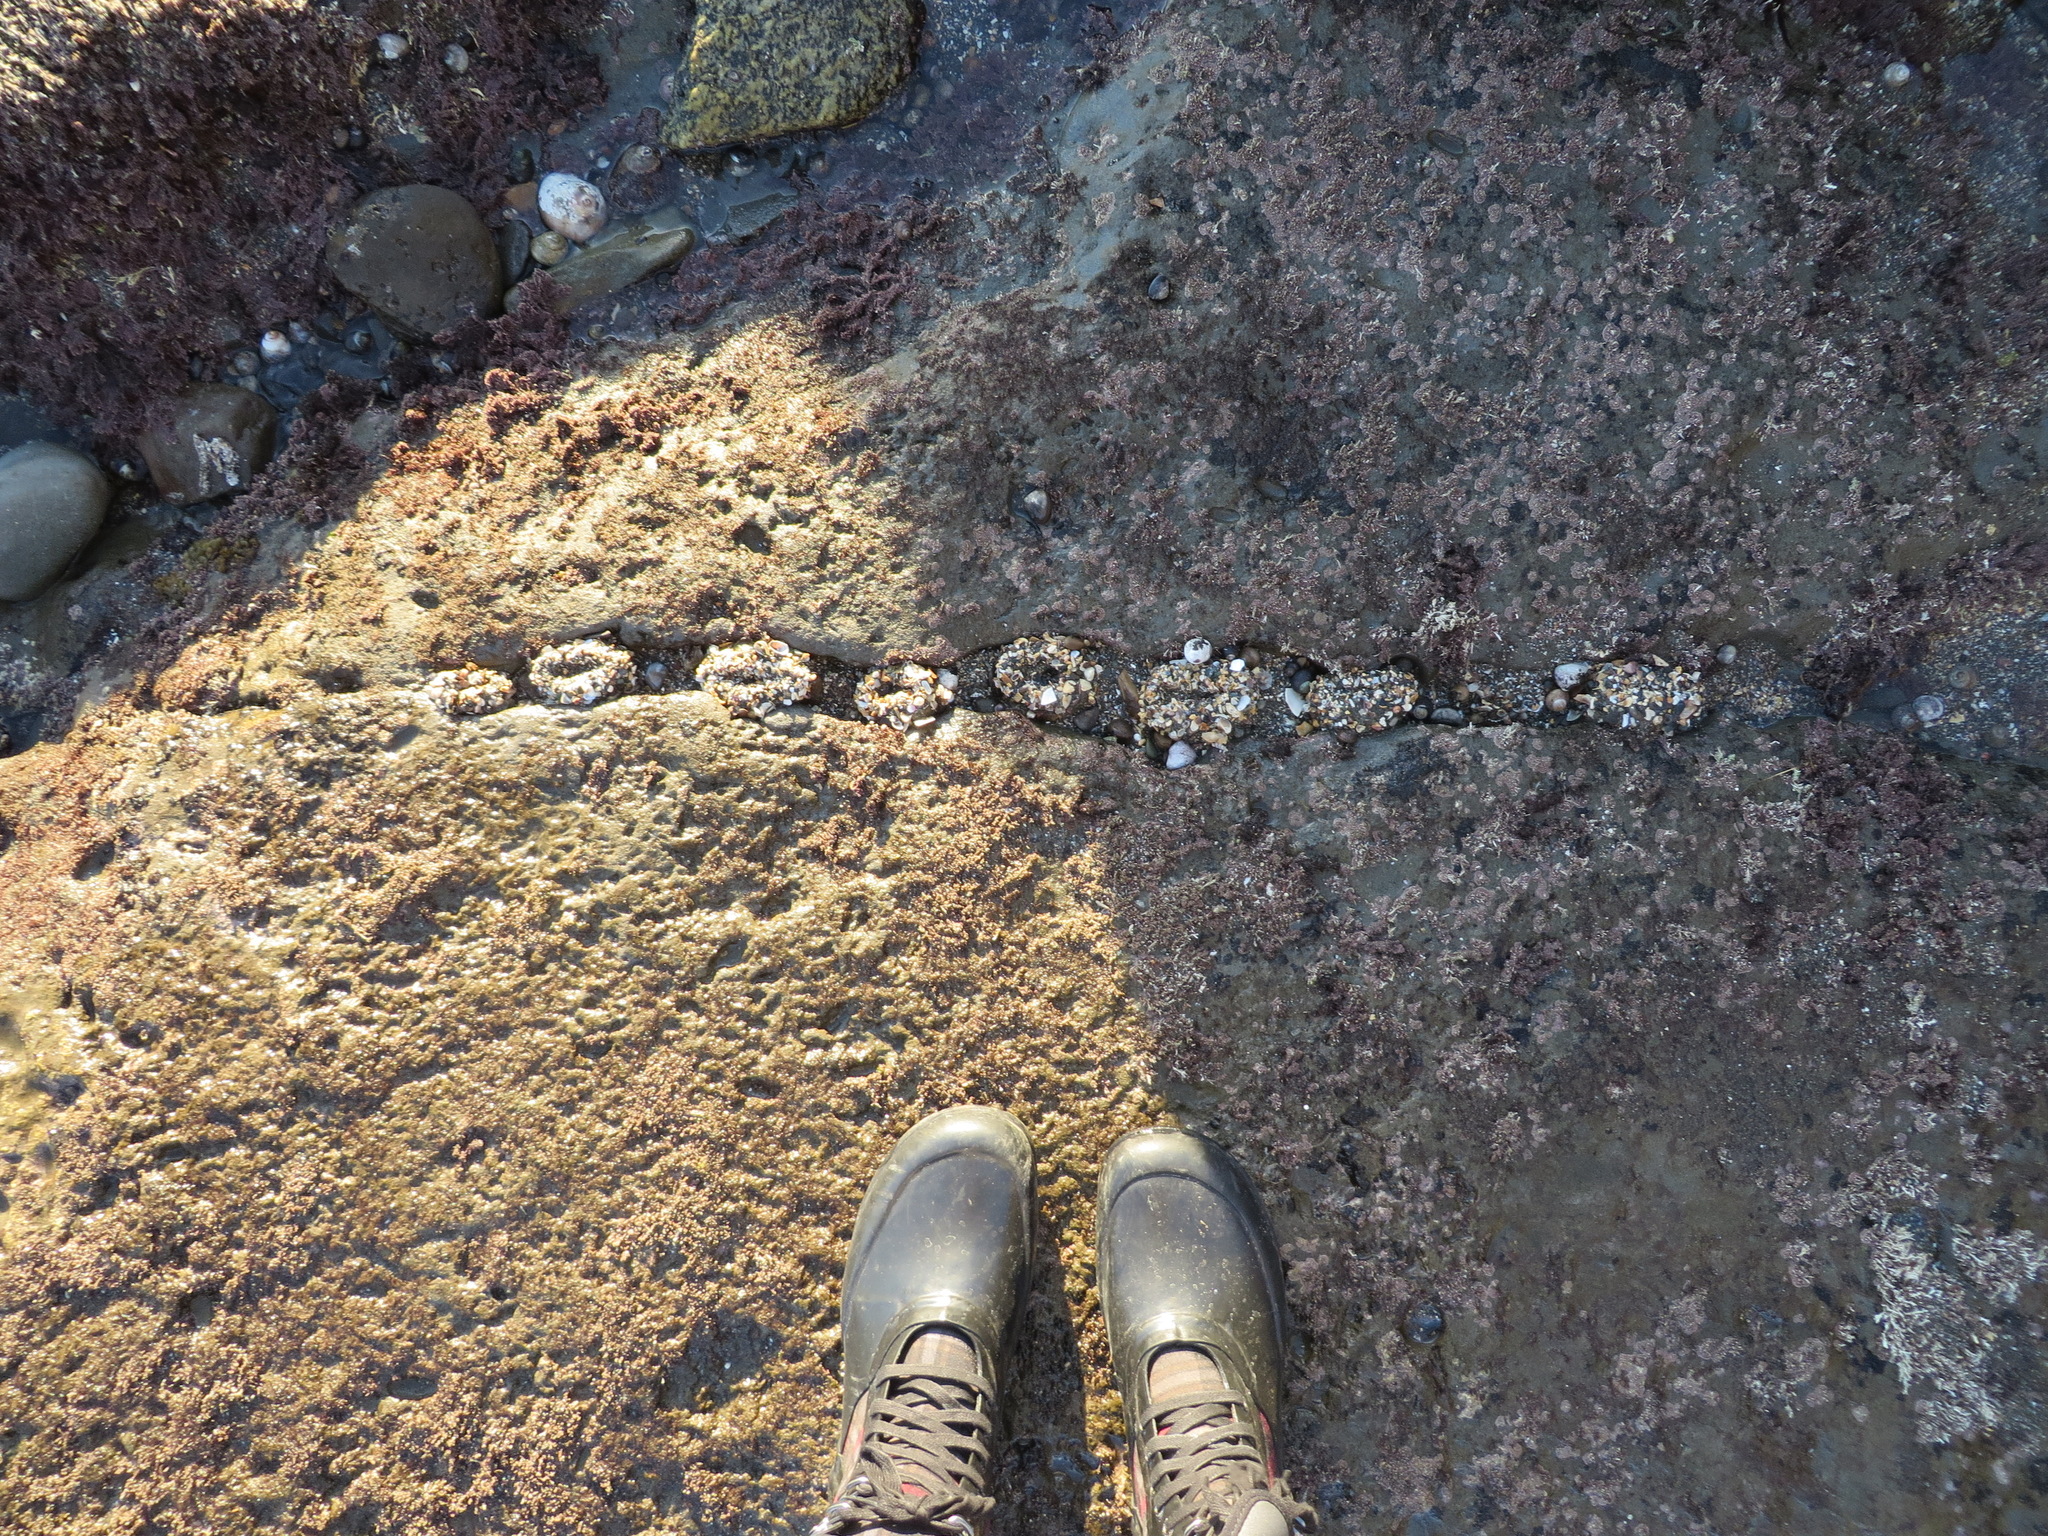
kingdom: Animalia
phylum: Cnidaria
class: Anthozoa
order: Actiniaria
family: Actiniidae
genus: Anthopleura
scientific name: Anthopleura elegantissima
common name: Clonal anemone
